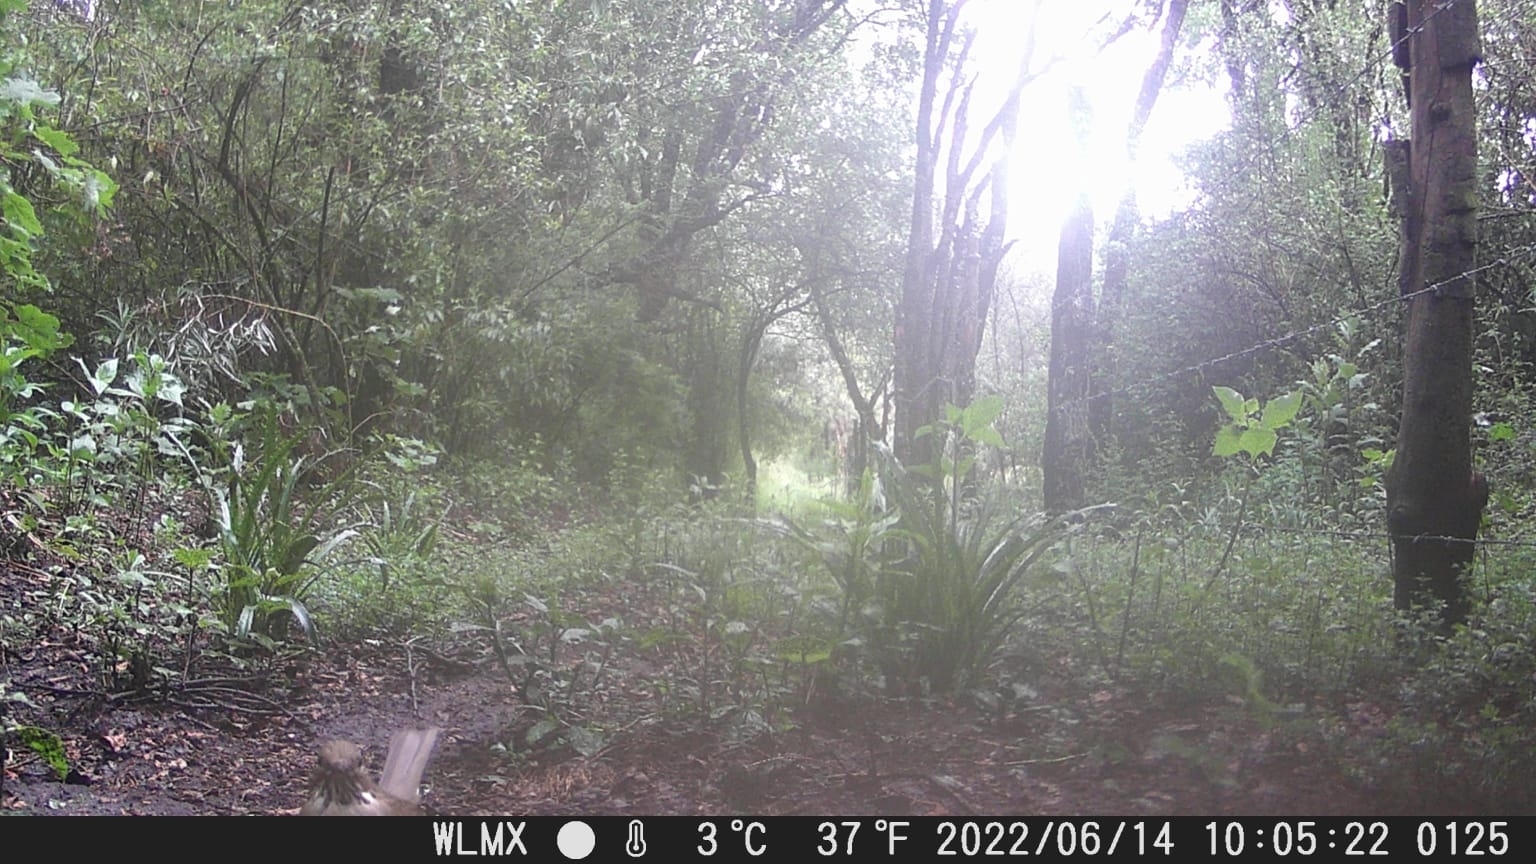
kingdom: Animalia
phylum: Chordata
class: Aves
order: Passeriformes
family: Turdidae
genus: Turdus
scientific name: Turdus assimilis
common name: White-throated thrush
